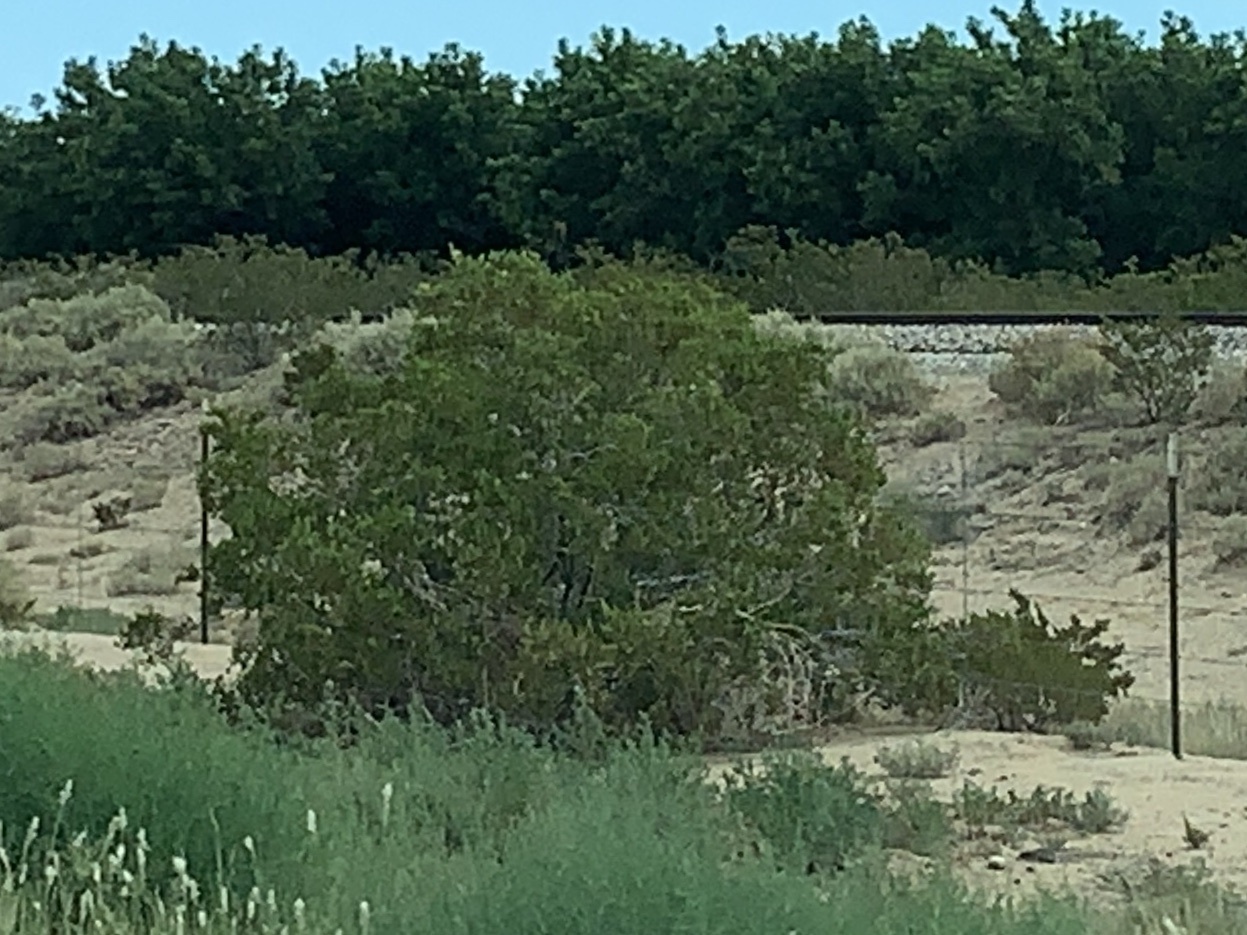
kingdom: Plantae
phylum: Tracheophyta
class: Magnoliopsida
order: Zygophyllales
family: Zygophyllaceae
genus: Larrea
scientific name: Larrea tridentata
